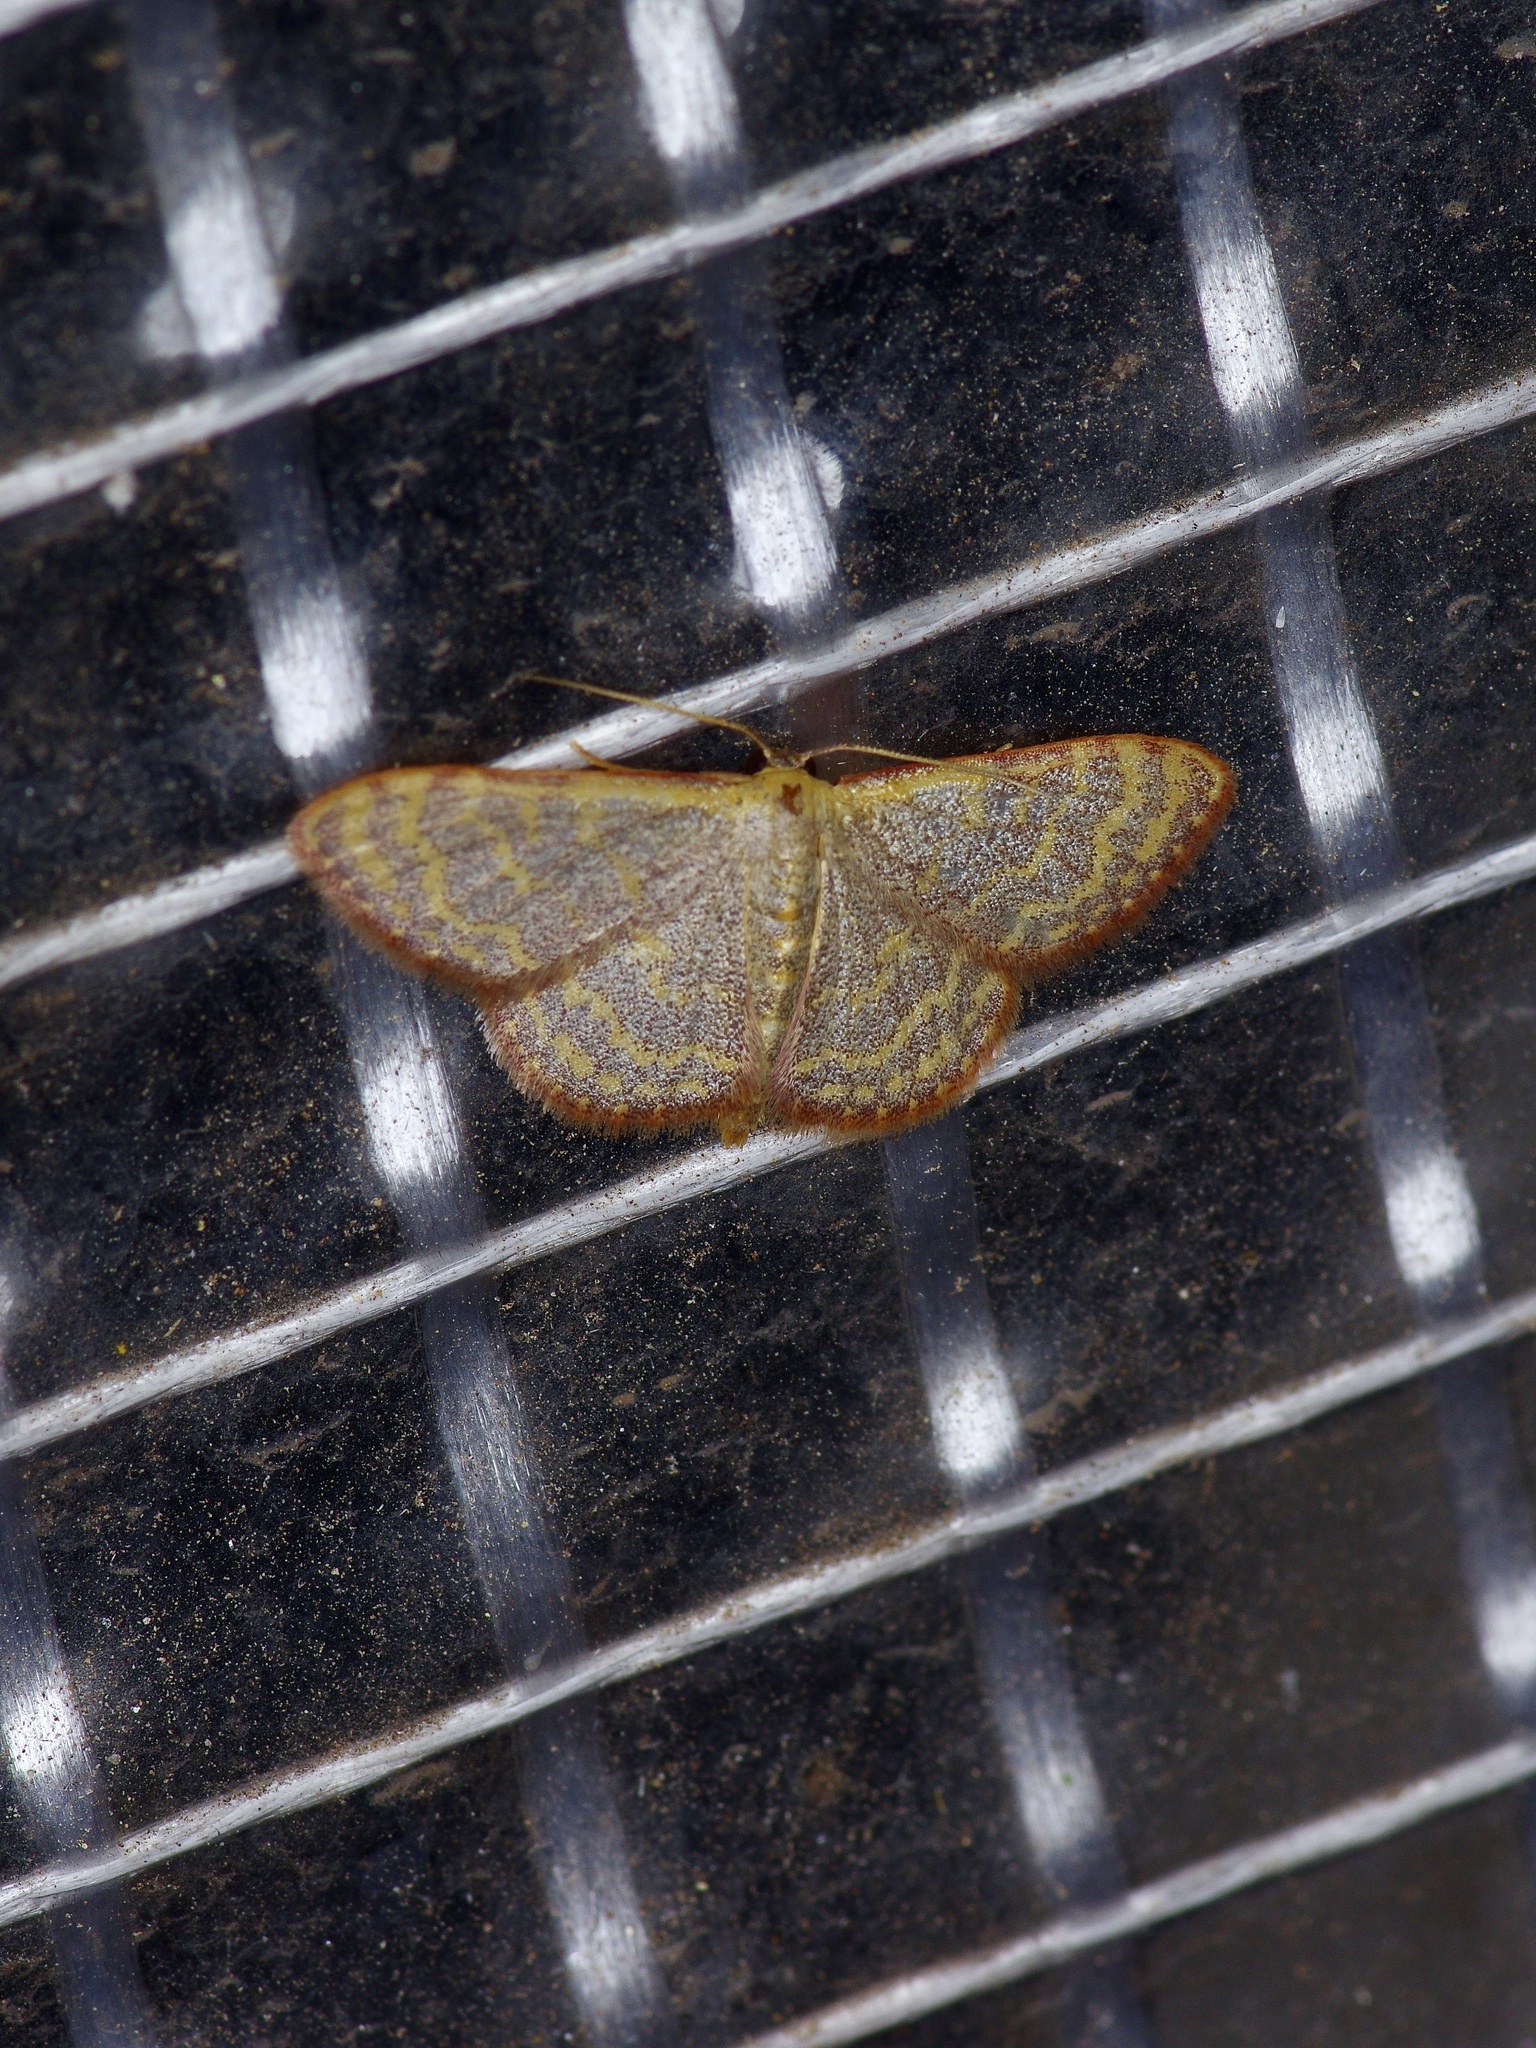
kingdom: Animalia
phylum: Arthropoda
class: Insecta
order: Lepidoptera
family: Geometridae
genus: Leptostales
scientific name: Leptostales pannaria
